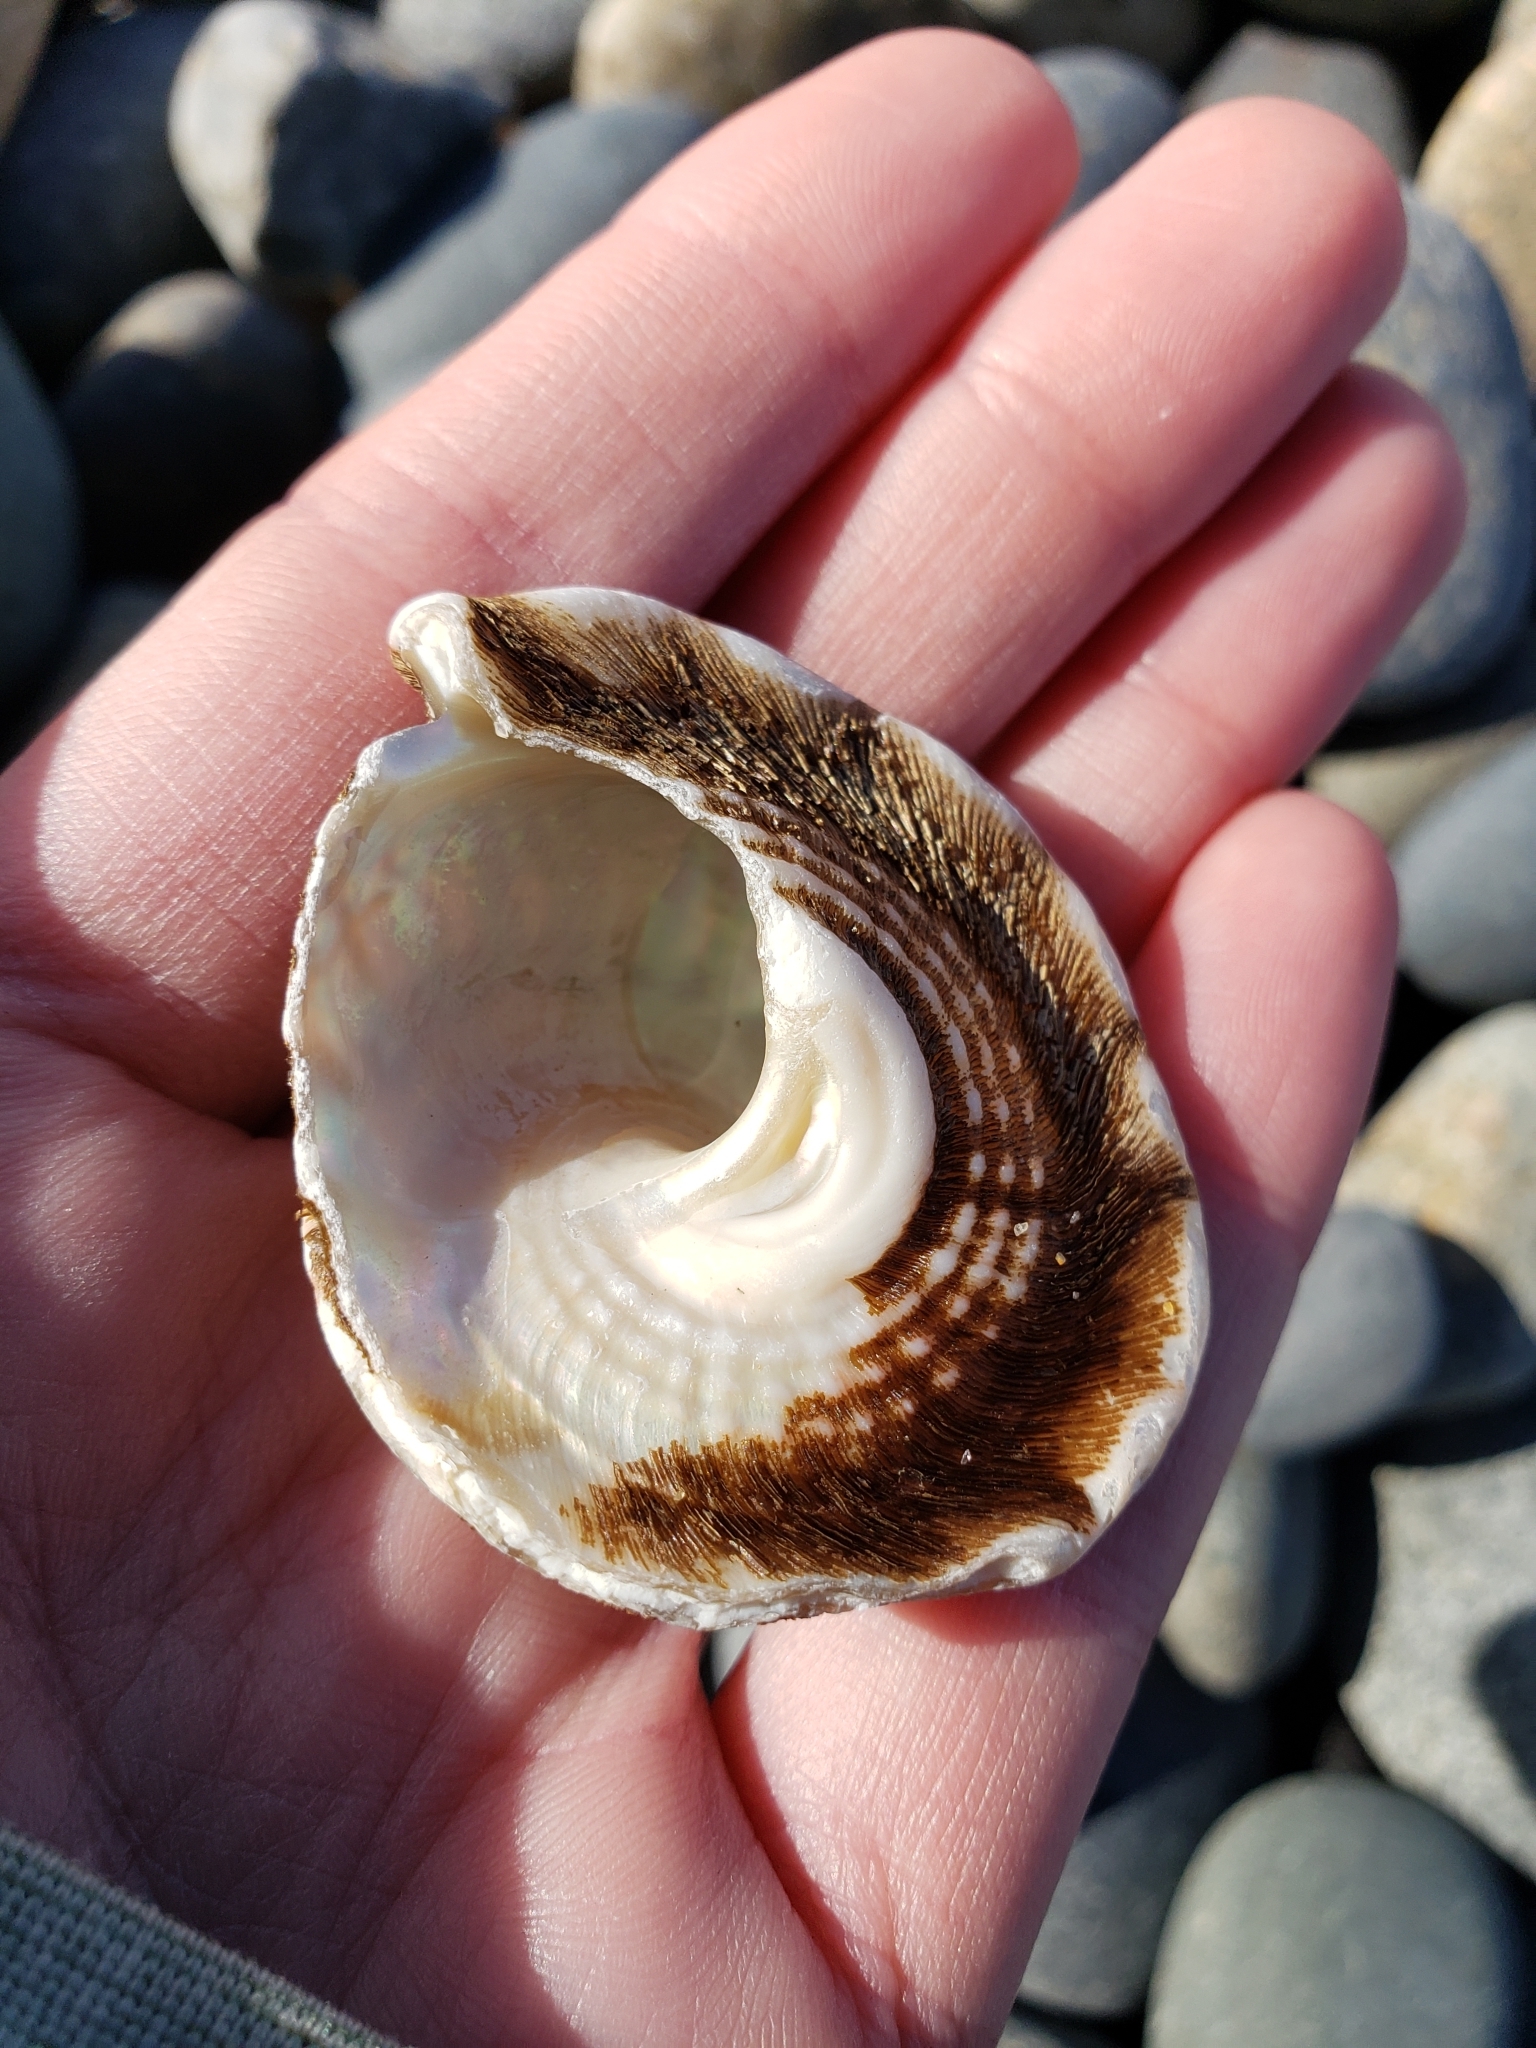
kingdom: Animalia
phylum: Mollusca
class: Gastropoda
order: Trochida
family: Turbinidae
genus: Megastraea
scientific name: Megastraea undosa
